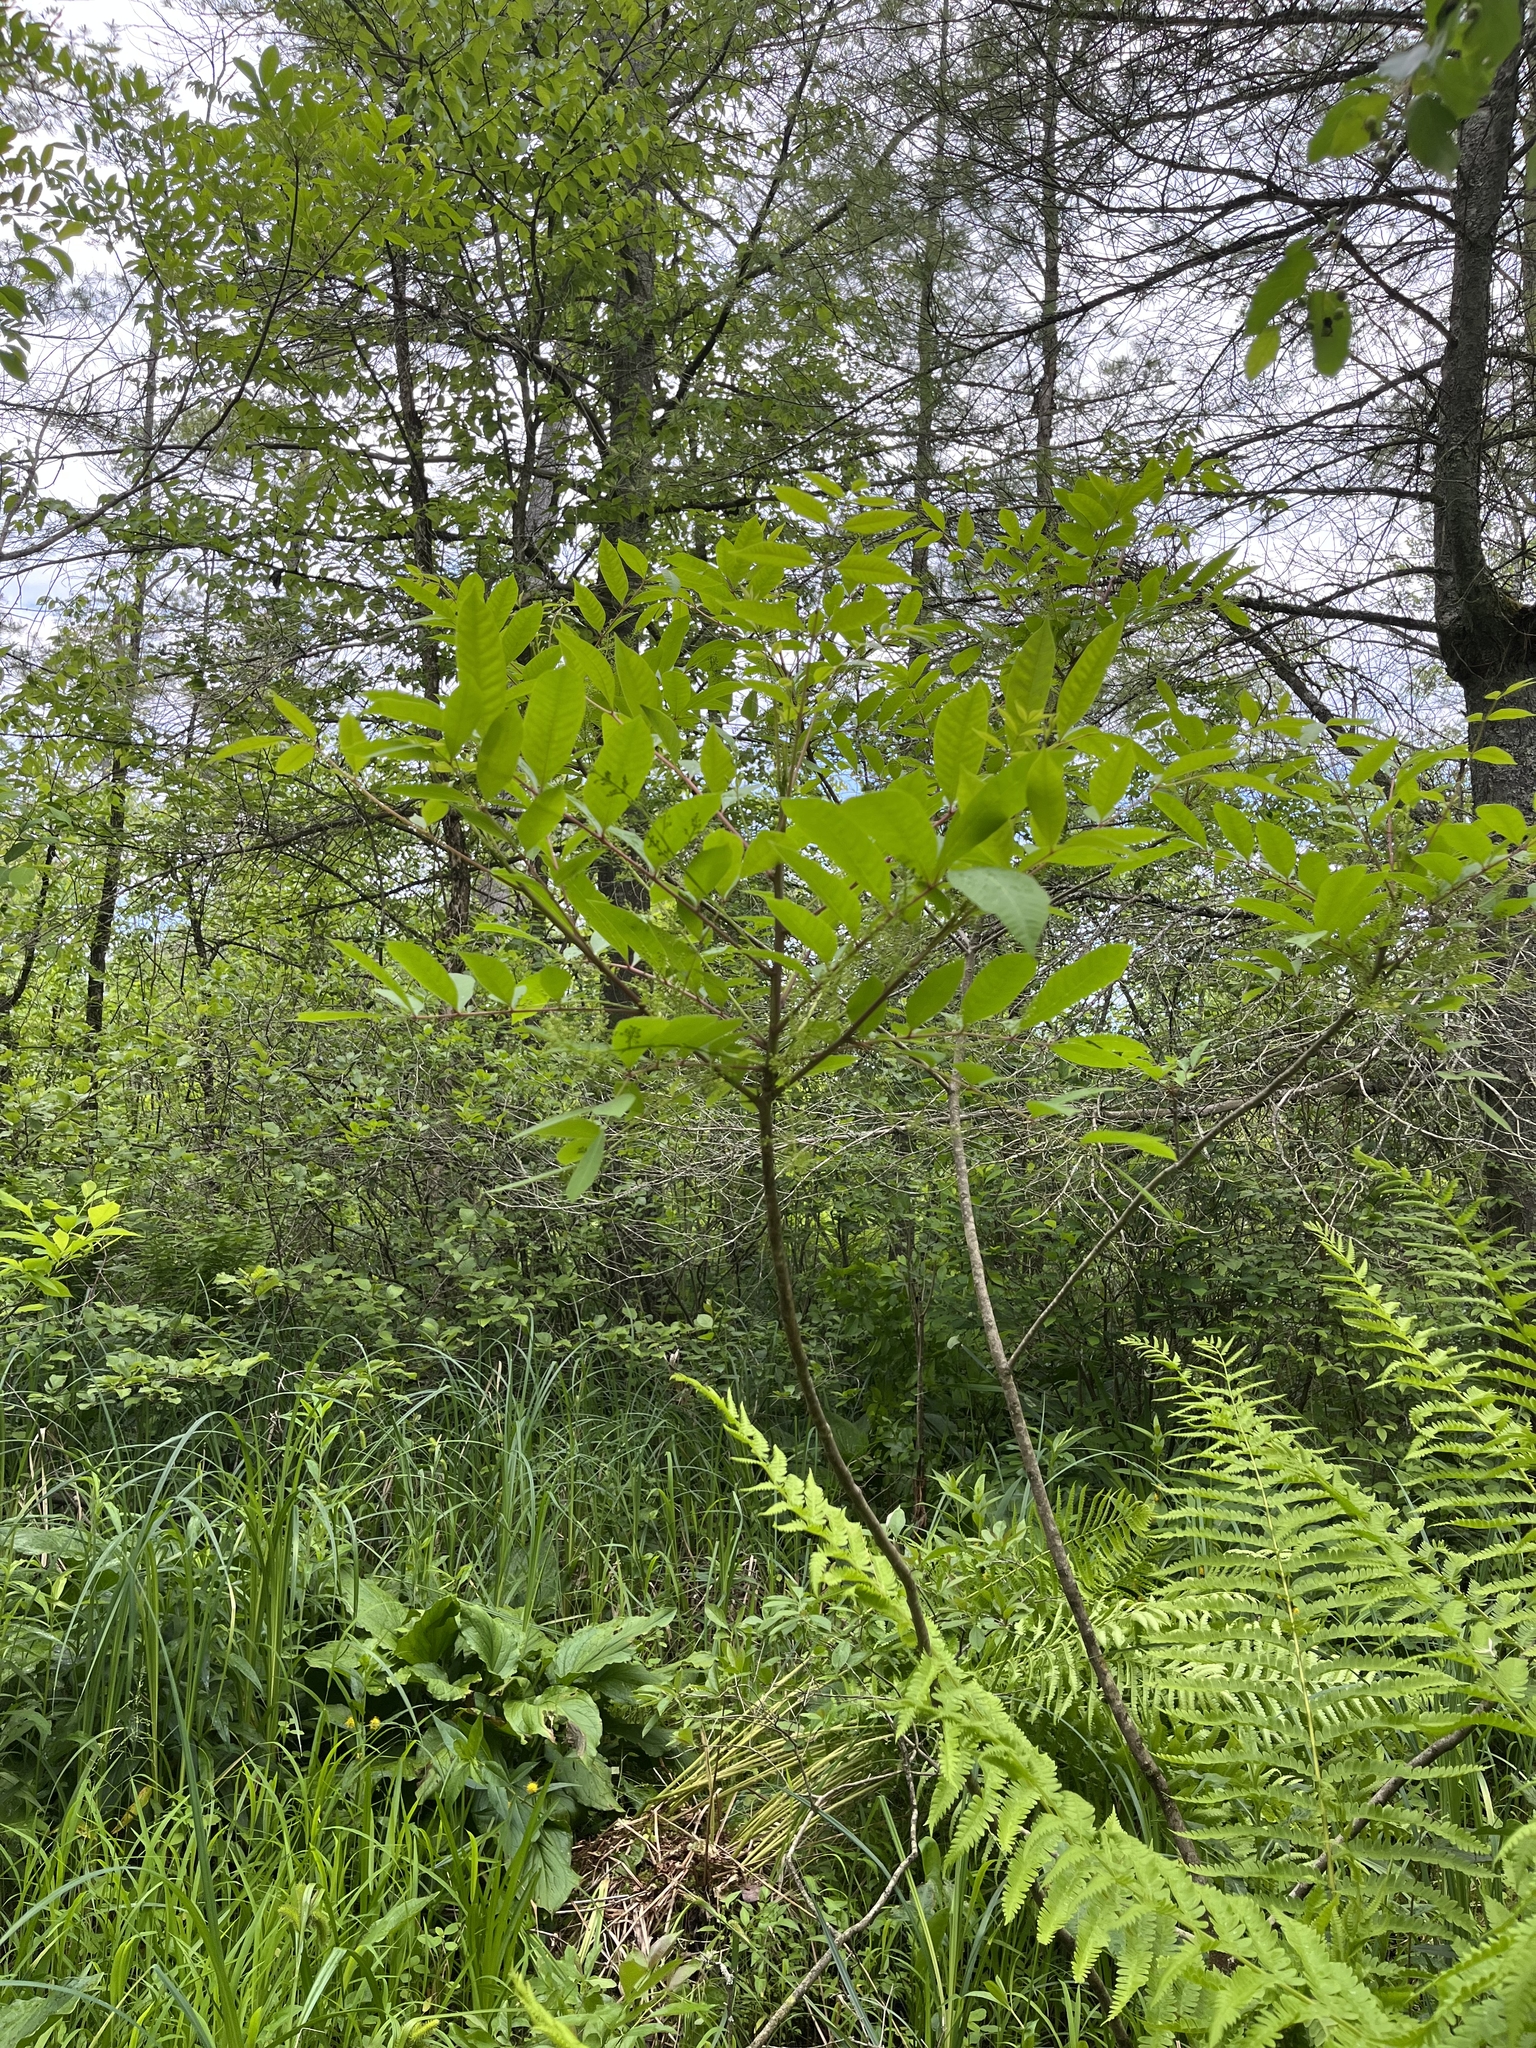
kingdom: Plantae
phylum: Tracheophyta
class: Magnoliopsida
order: Sapindales
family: Anacardiaceae
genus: Toxicodendron
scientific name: Toxicodendron vernix
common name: Poison sumac
